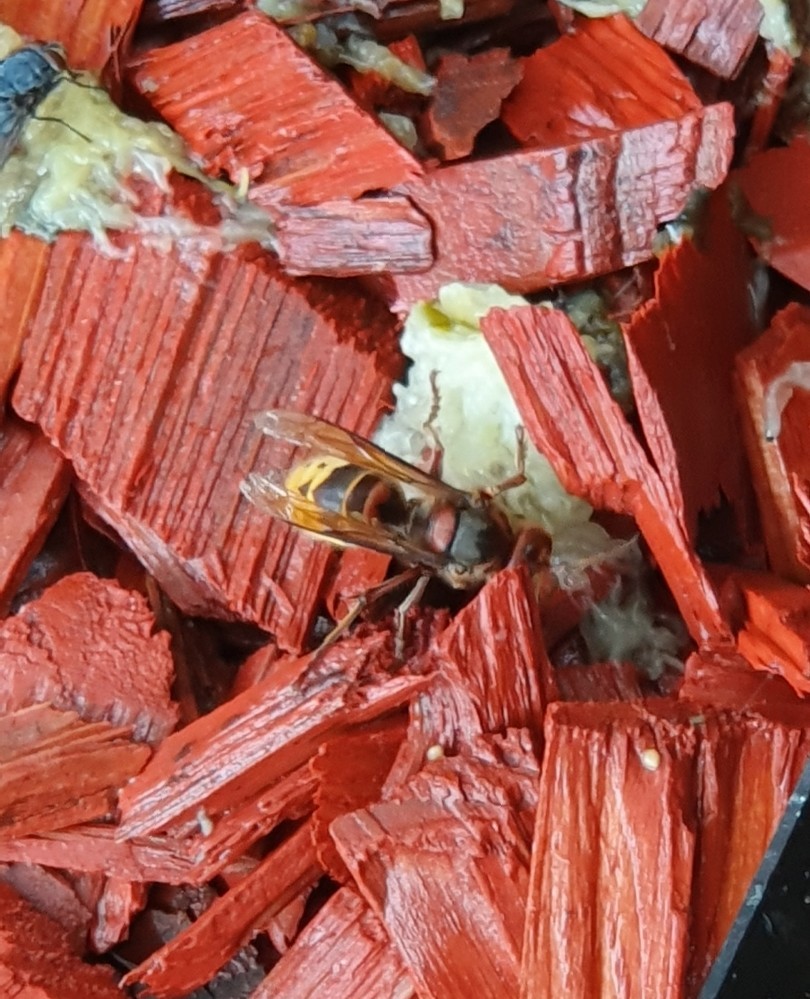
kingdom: Animalia
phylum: Arthropoda
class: Insecta
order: Hymenoptera
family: Vespidae
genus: Vespa
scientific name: Vespa crabro
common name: Hornet
